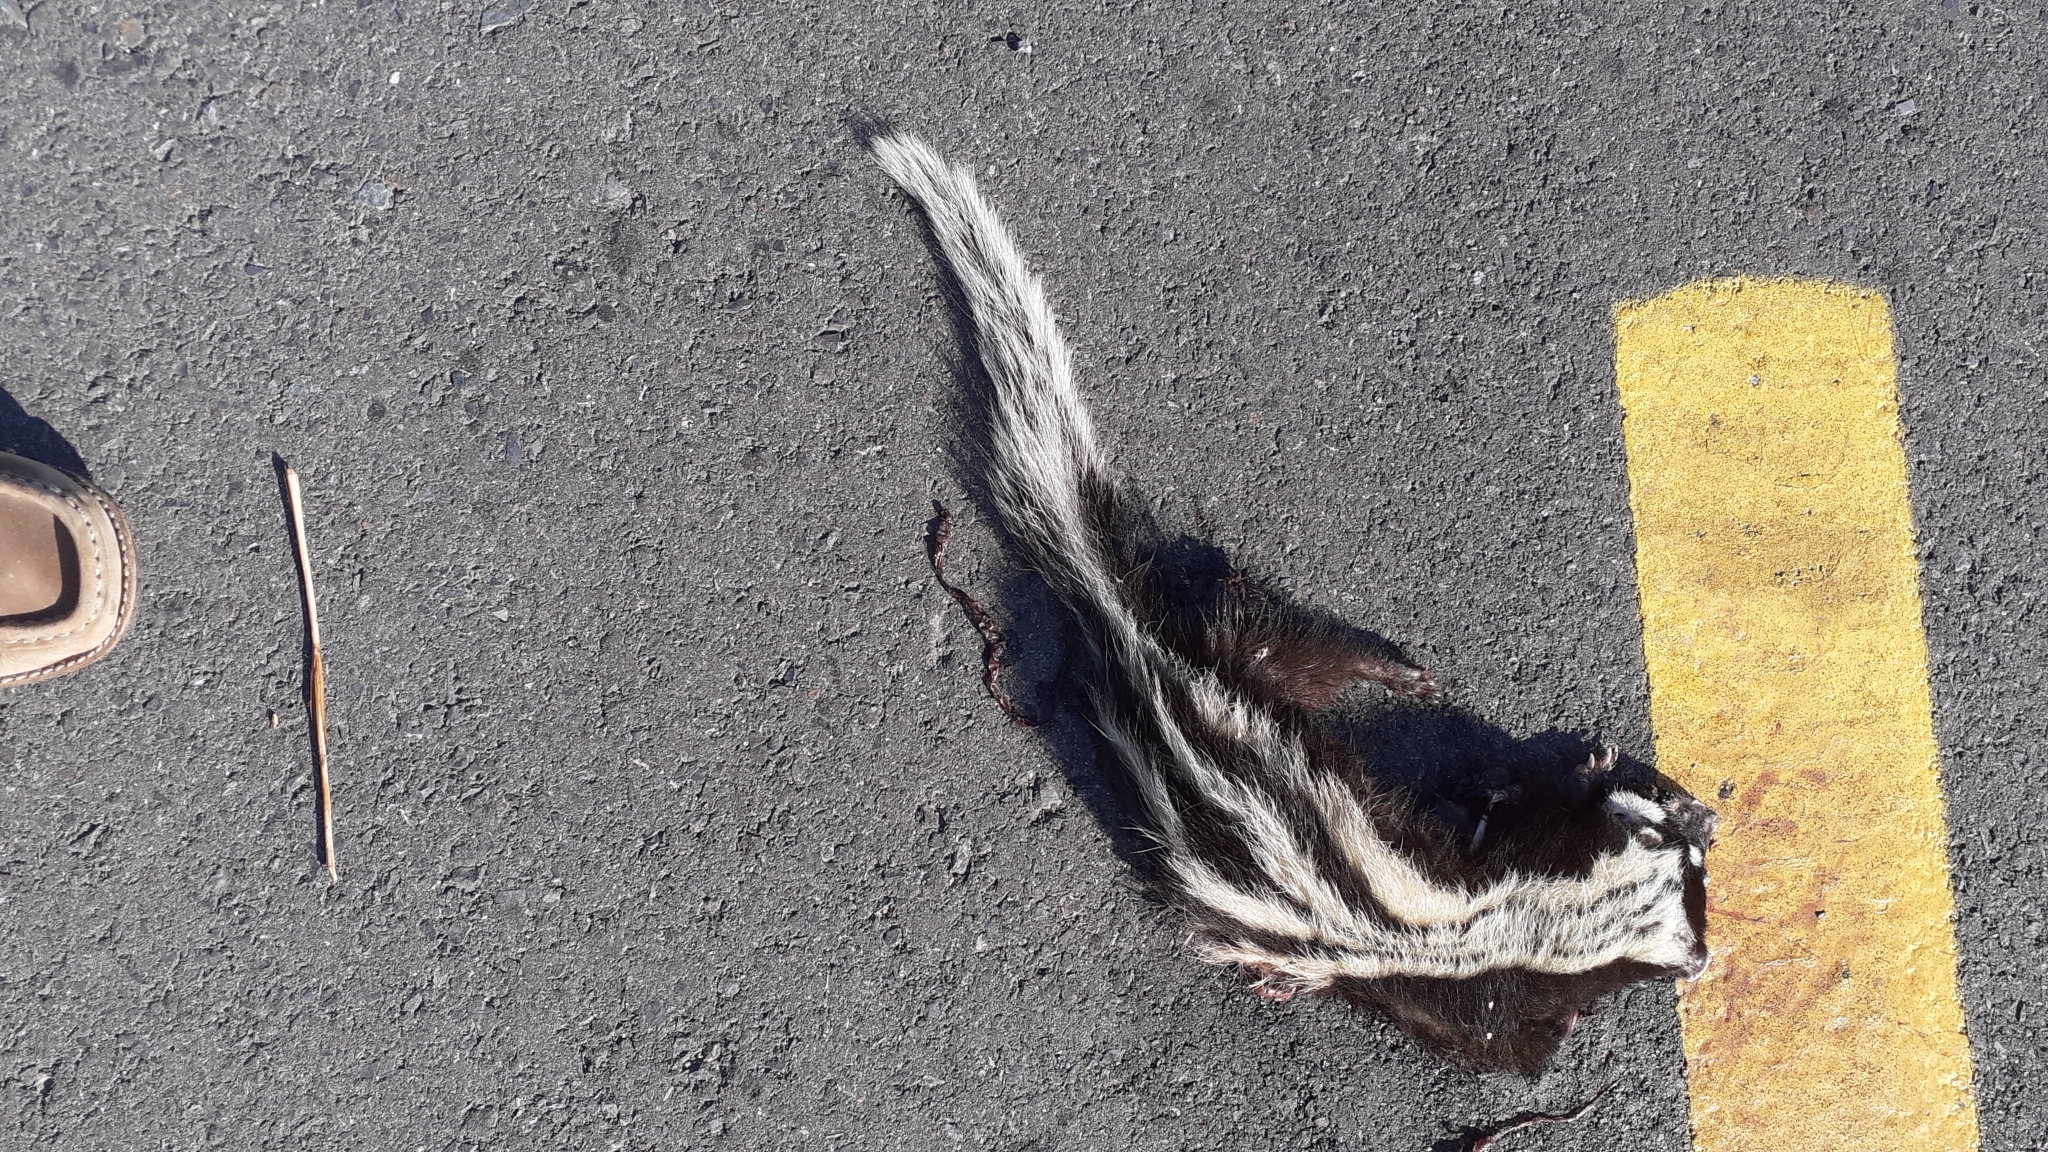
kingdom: Animalia
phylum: Chordata
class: Mammalia
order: Carnivora
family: Mustelidae
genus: Ictonyx
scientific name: Ictonyx striatus
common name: Striped polecat
